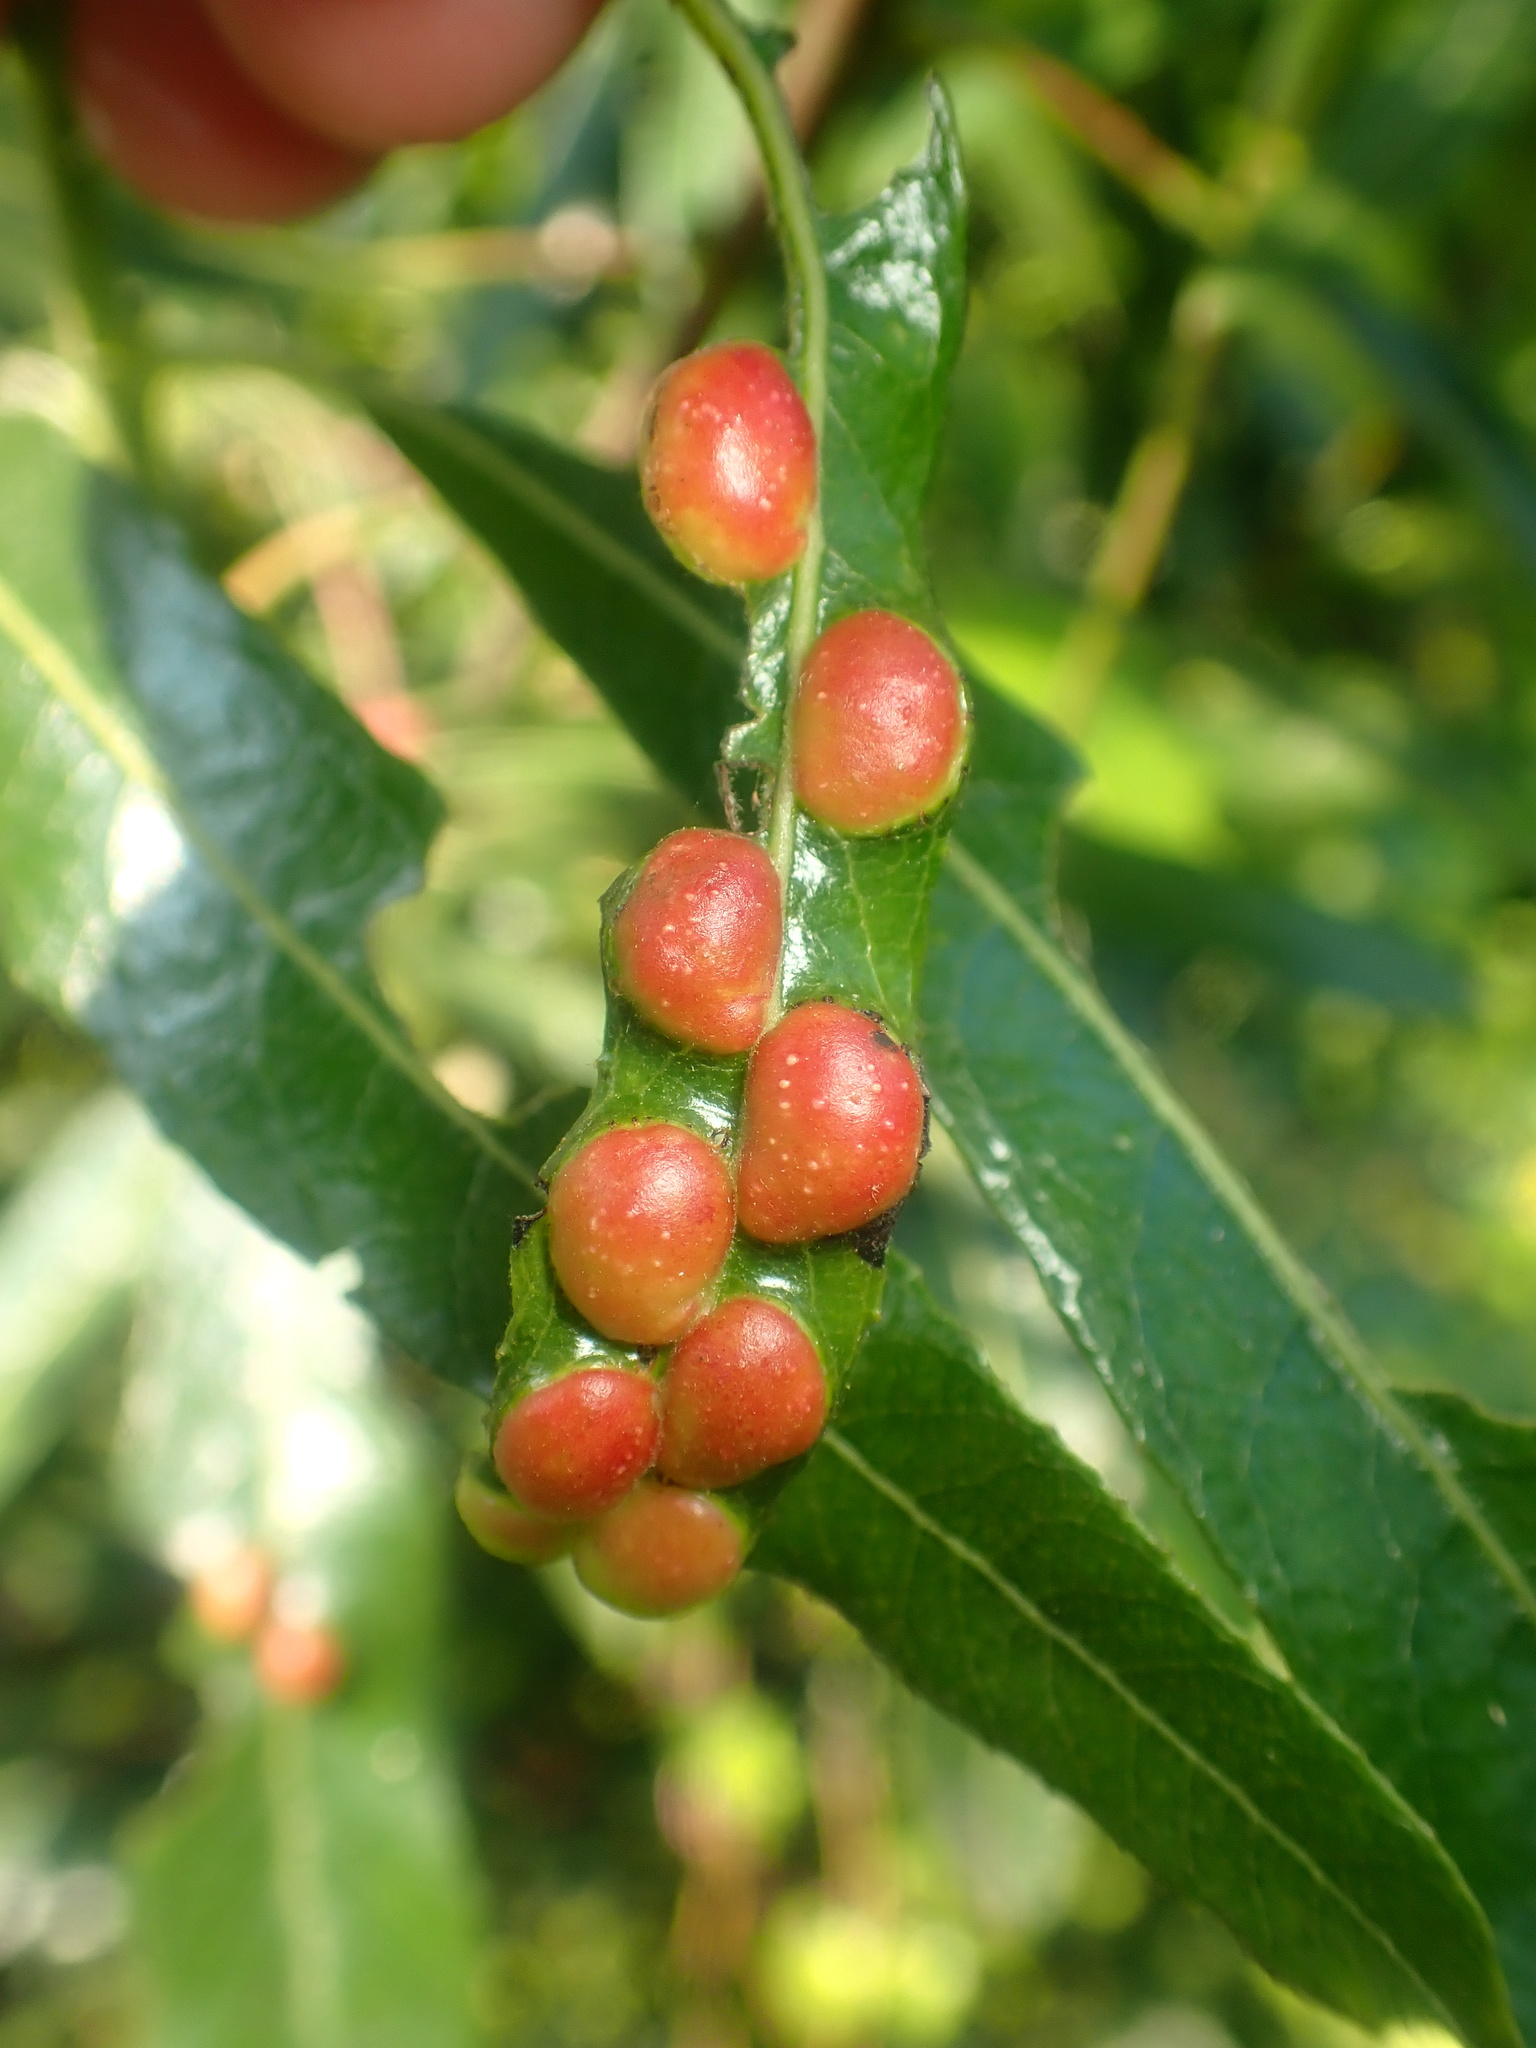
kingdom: Animalia
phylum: Arthropoda
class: Insecta
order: Hymenoptera
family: Tenthredinidae
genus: Euura
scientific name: Euura
